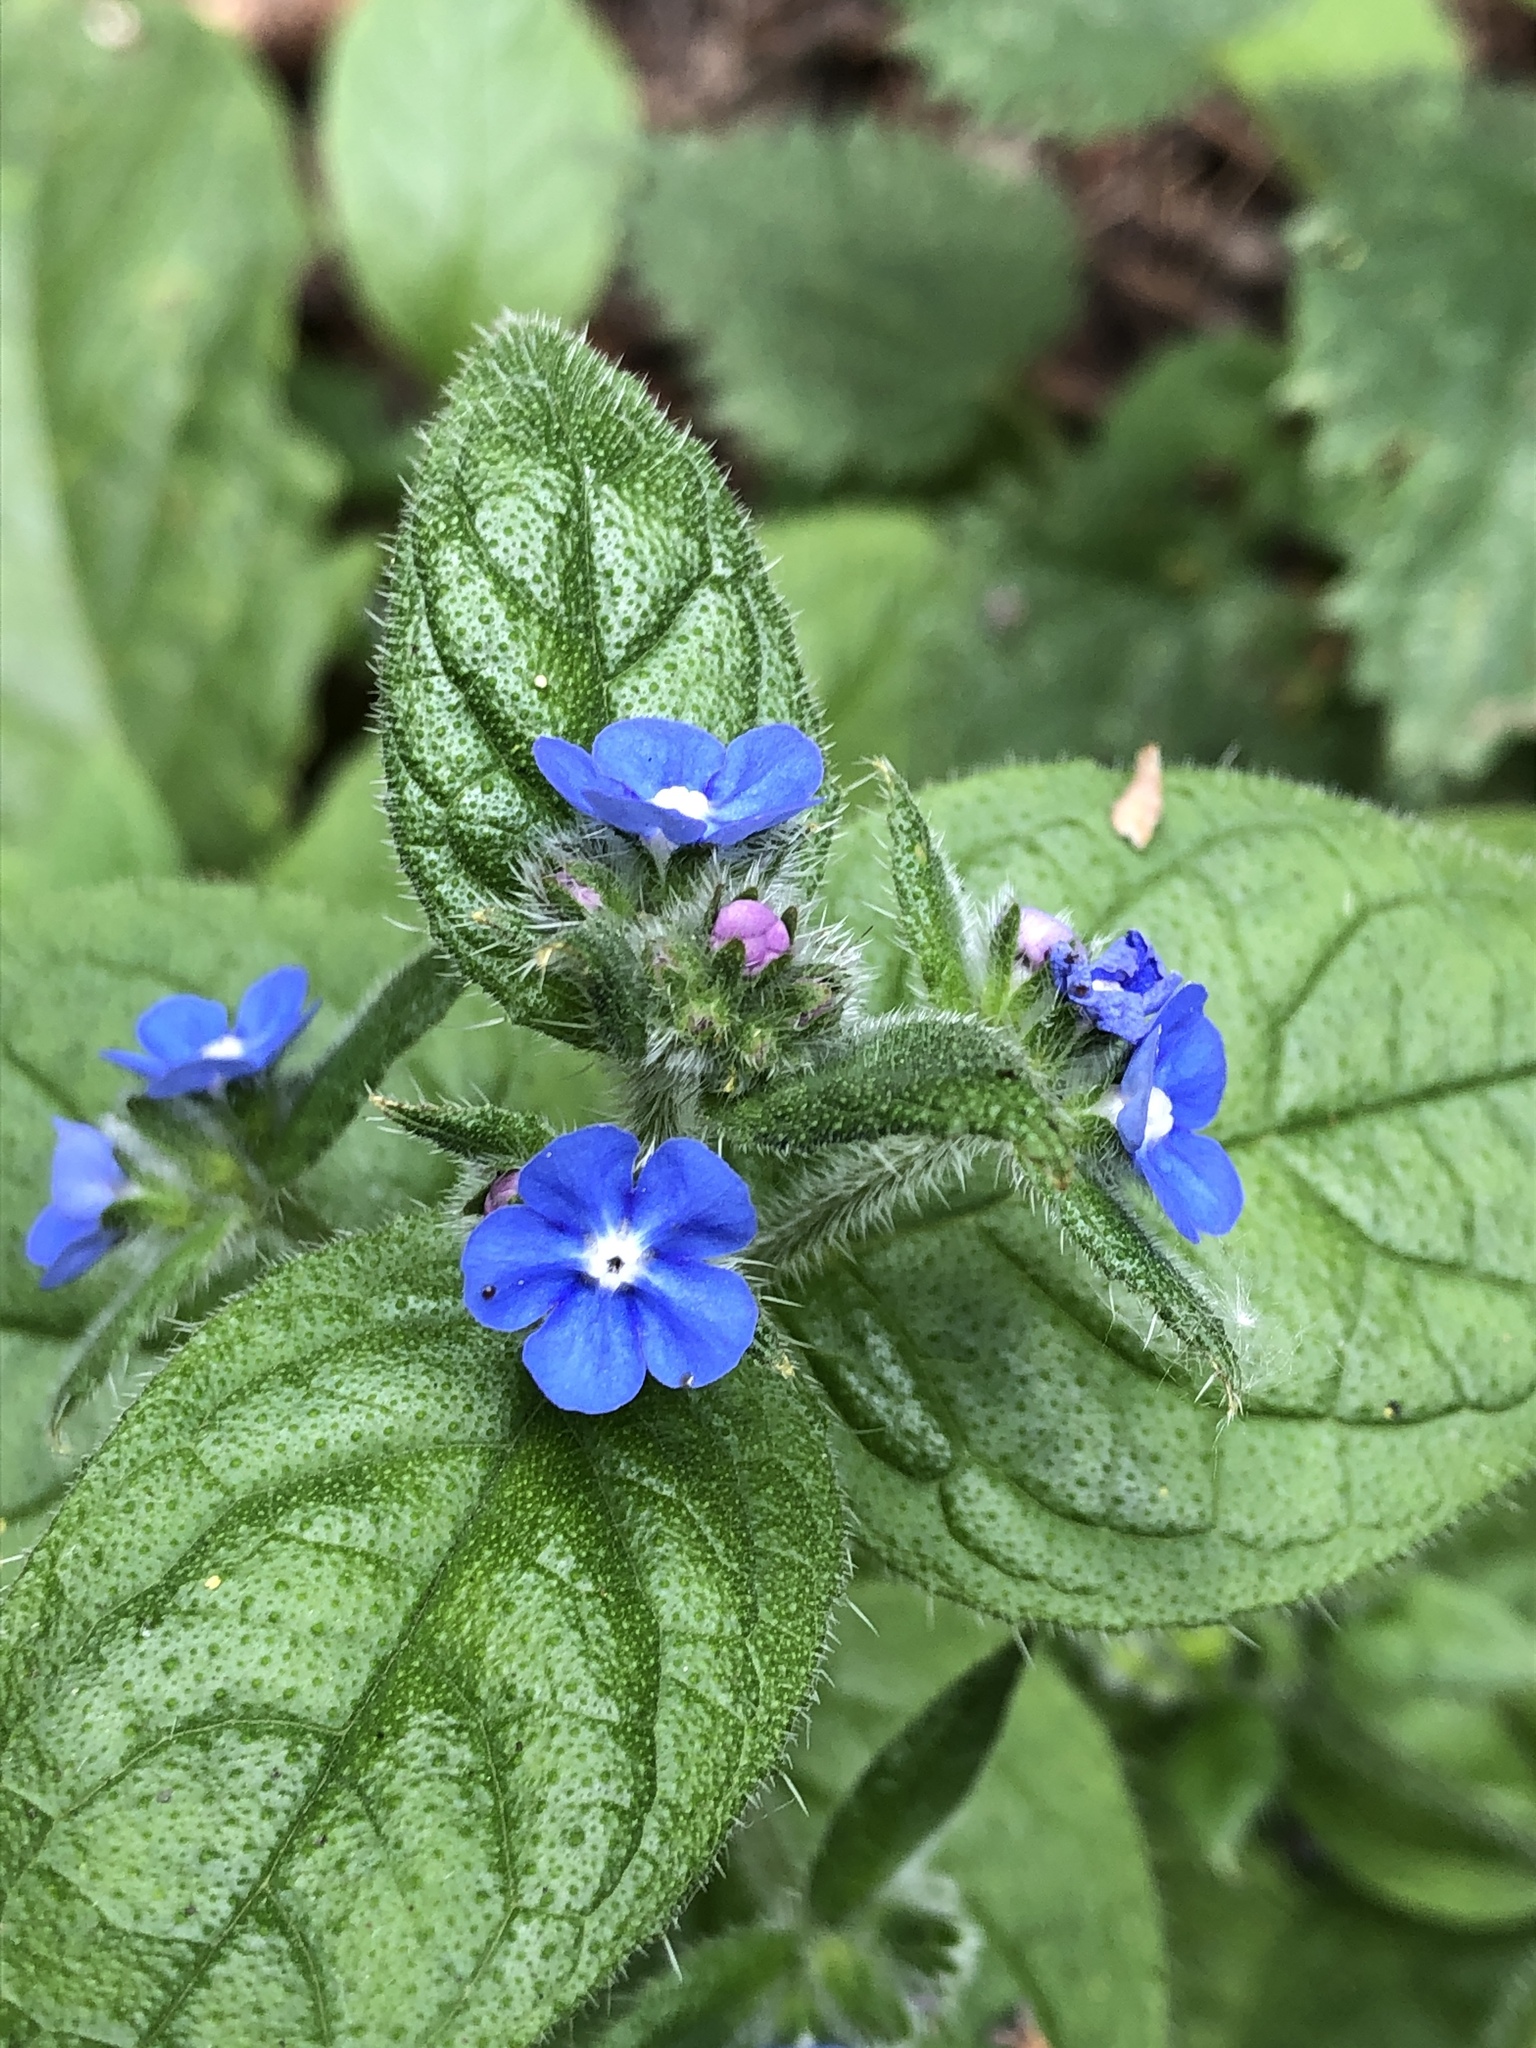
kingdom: Plantae
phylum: Tracheophyta
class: Magnoliopsida
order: Boraginales
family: Boraginaceae
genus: Pentaglottis
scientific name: Pentaglottis sempervirens
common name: Green alkanet
